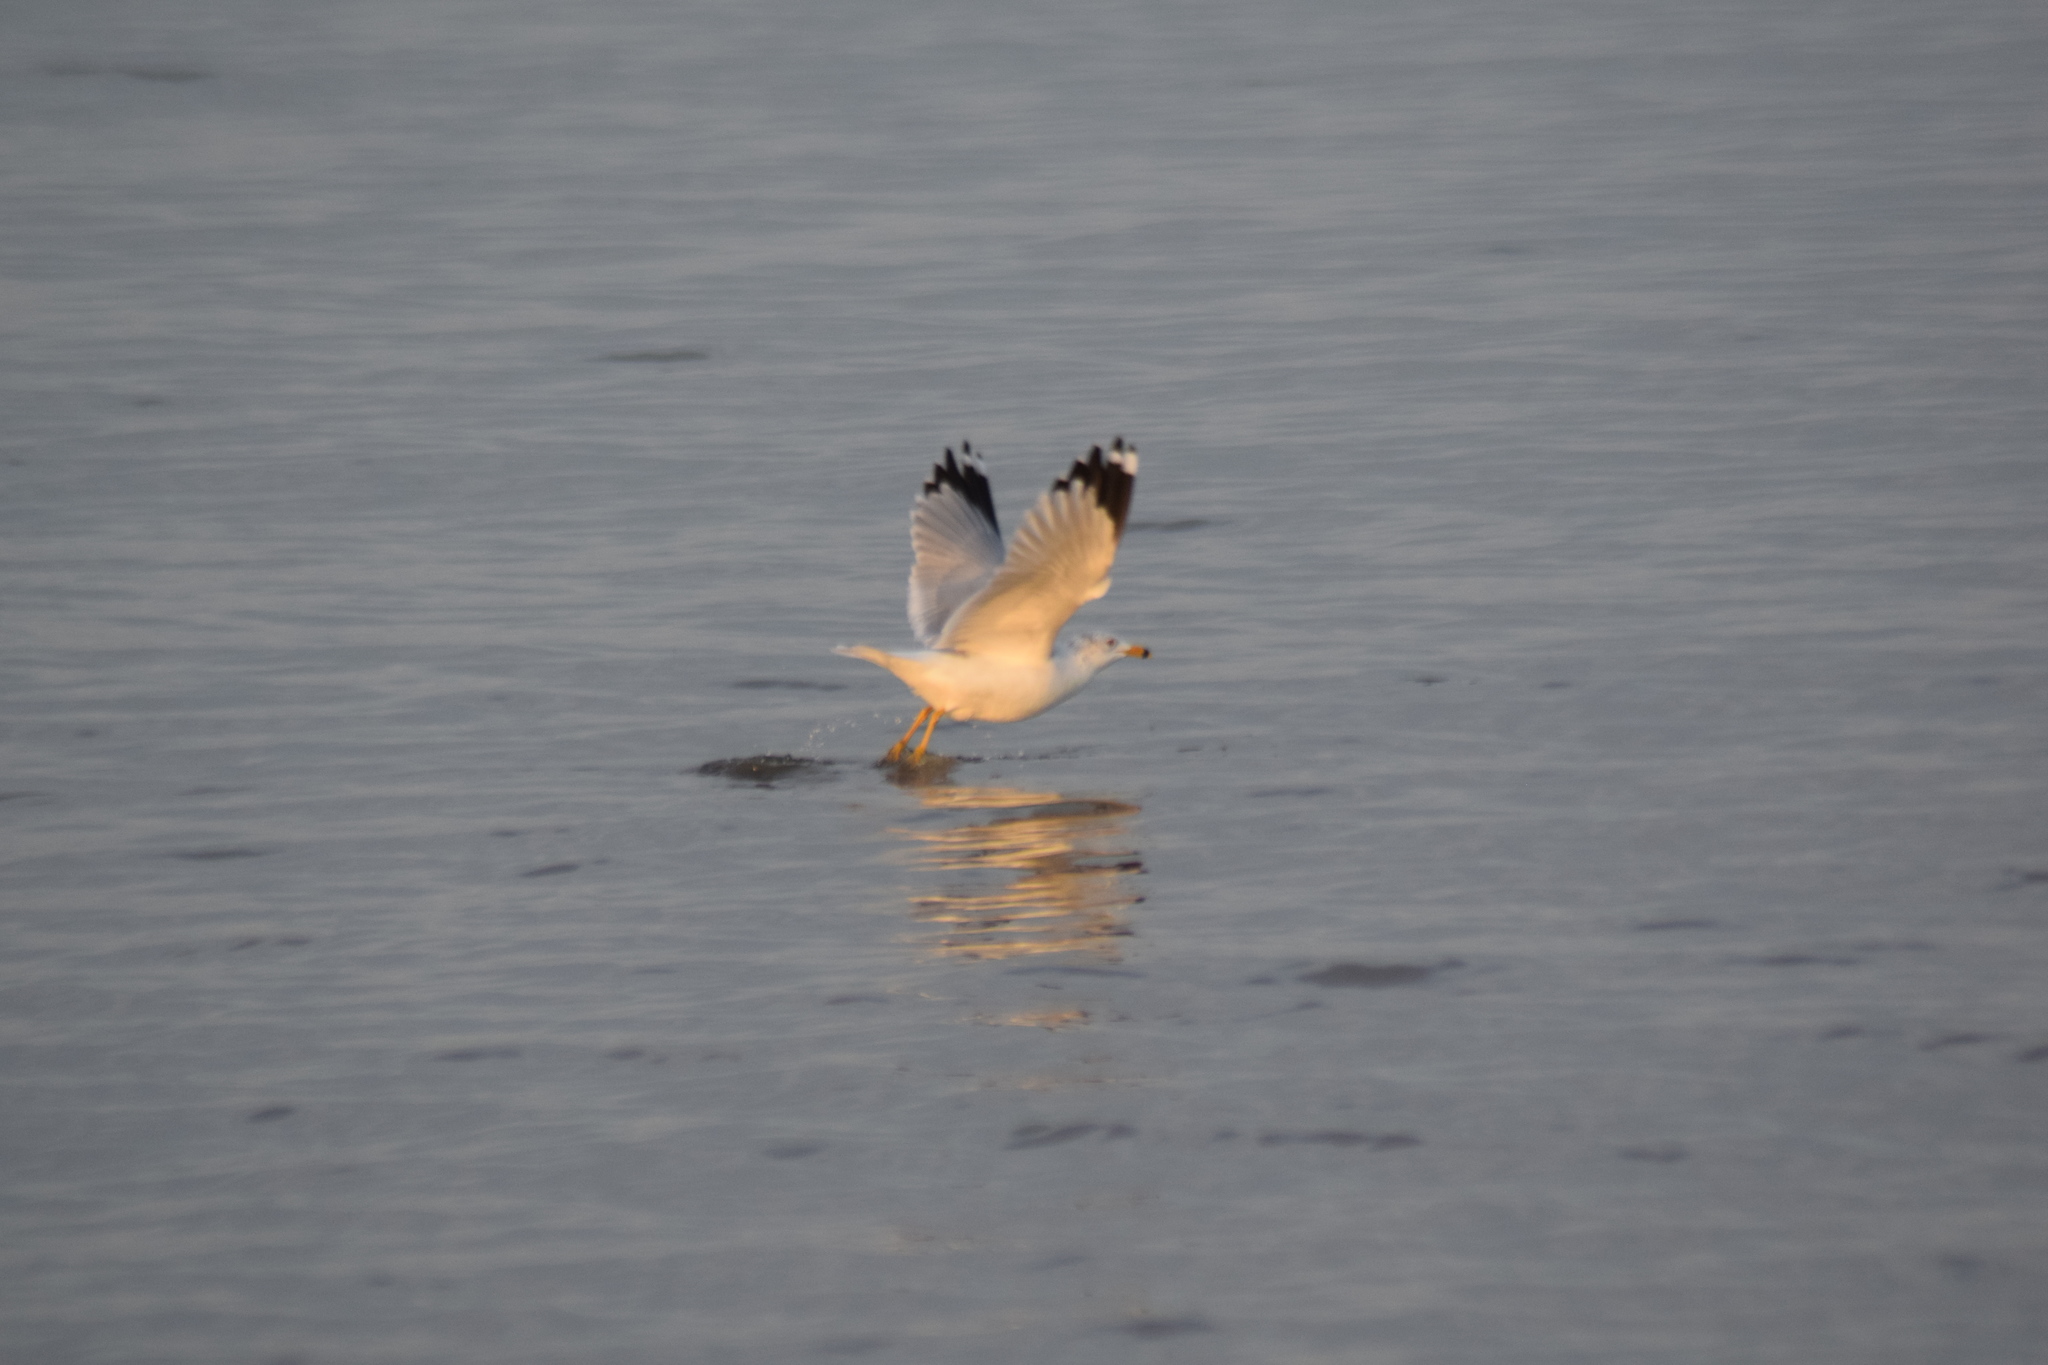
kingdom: Animalia
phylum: Chordata
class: Aves
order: Charadriiformes
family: Laridae
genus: Larus
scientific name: Larus delawarensis
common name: Ring-billed gull
